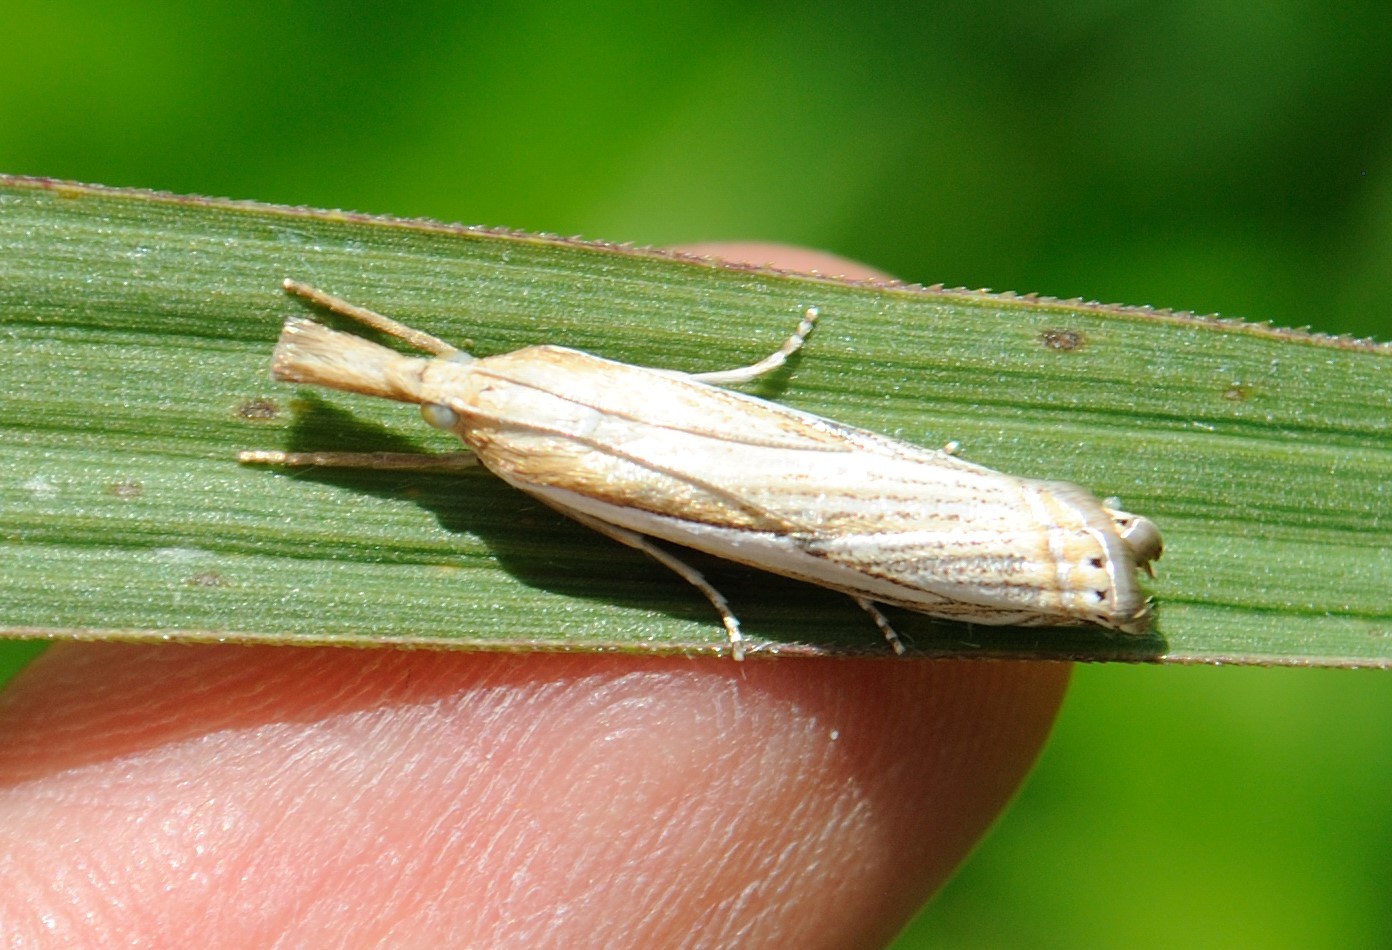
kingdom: Animalia
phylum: Arthropoda
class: Insecta
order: Lepidoptera
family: Crambidae
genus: Crambus
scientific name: Crambus saltuellus
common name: Pasture grass-veneer
